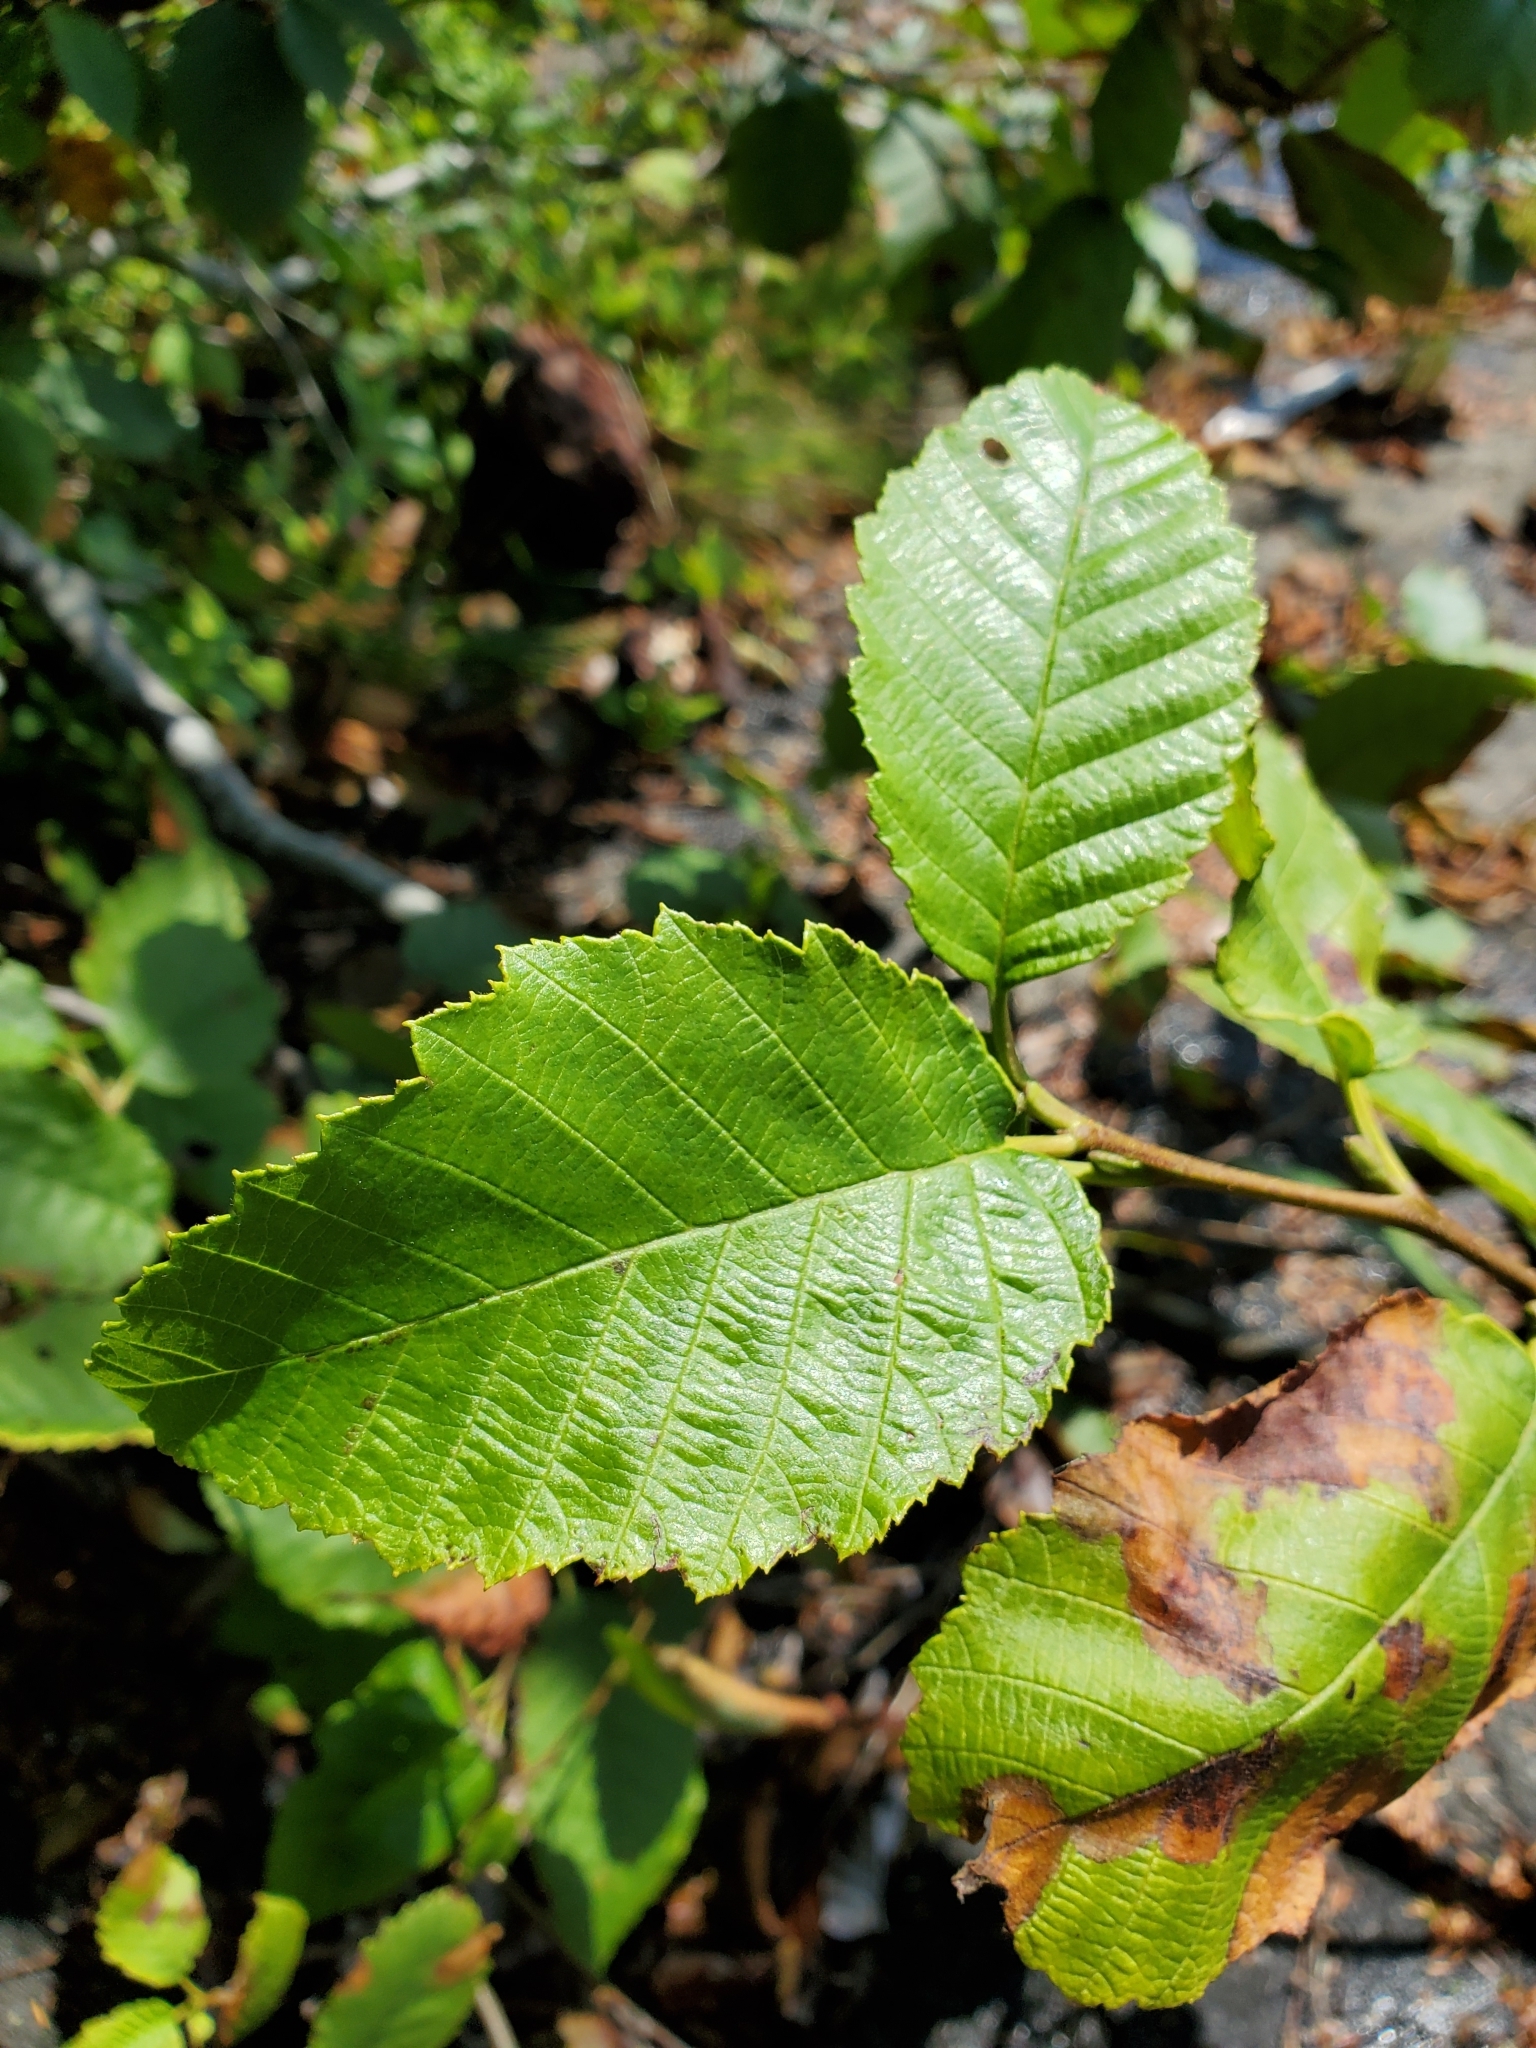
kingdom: Plantae
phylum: Tracheophyta
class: Magnoliopsida
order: Fagales
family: Betulaceae
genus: Alnus
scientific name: Alnus rubra
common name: Red alder
